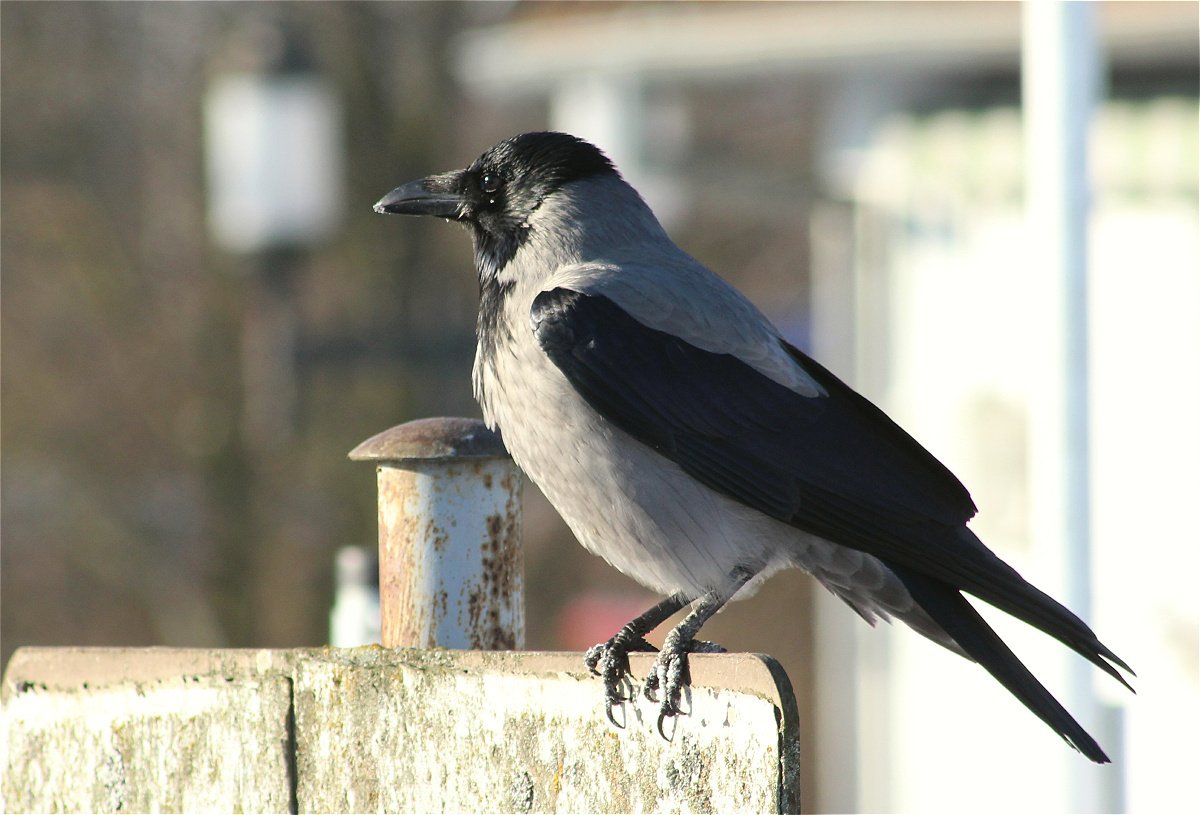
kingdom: Animalia
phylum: Chordata
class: Aves
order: Passeriformes
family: Corvidae
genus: Corvus
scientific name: Corvus cornix
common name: Hooded crow
